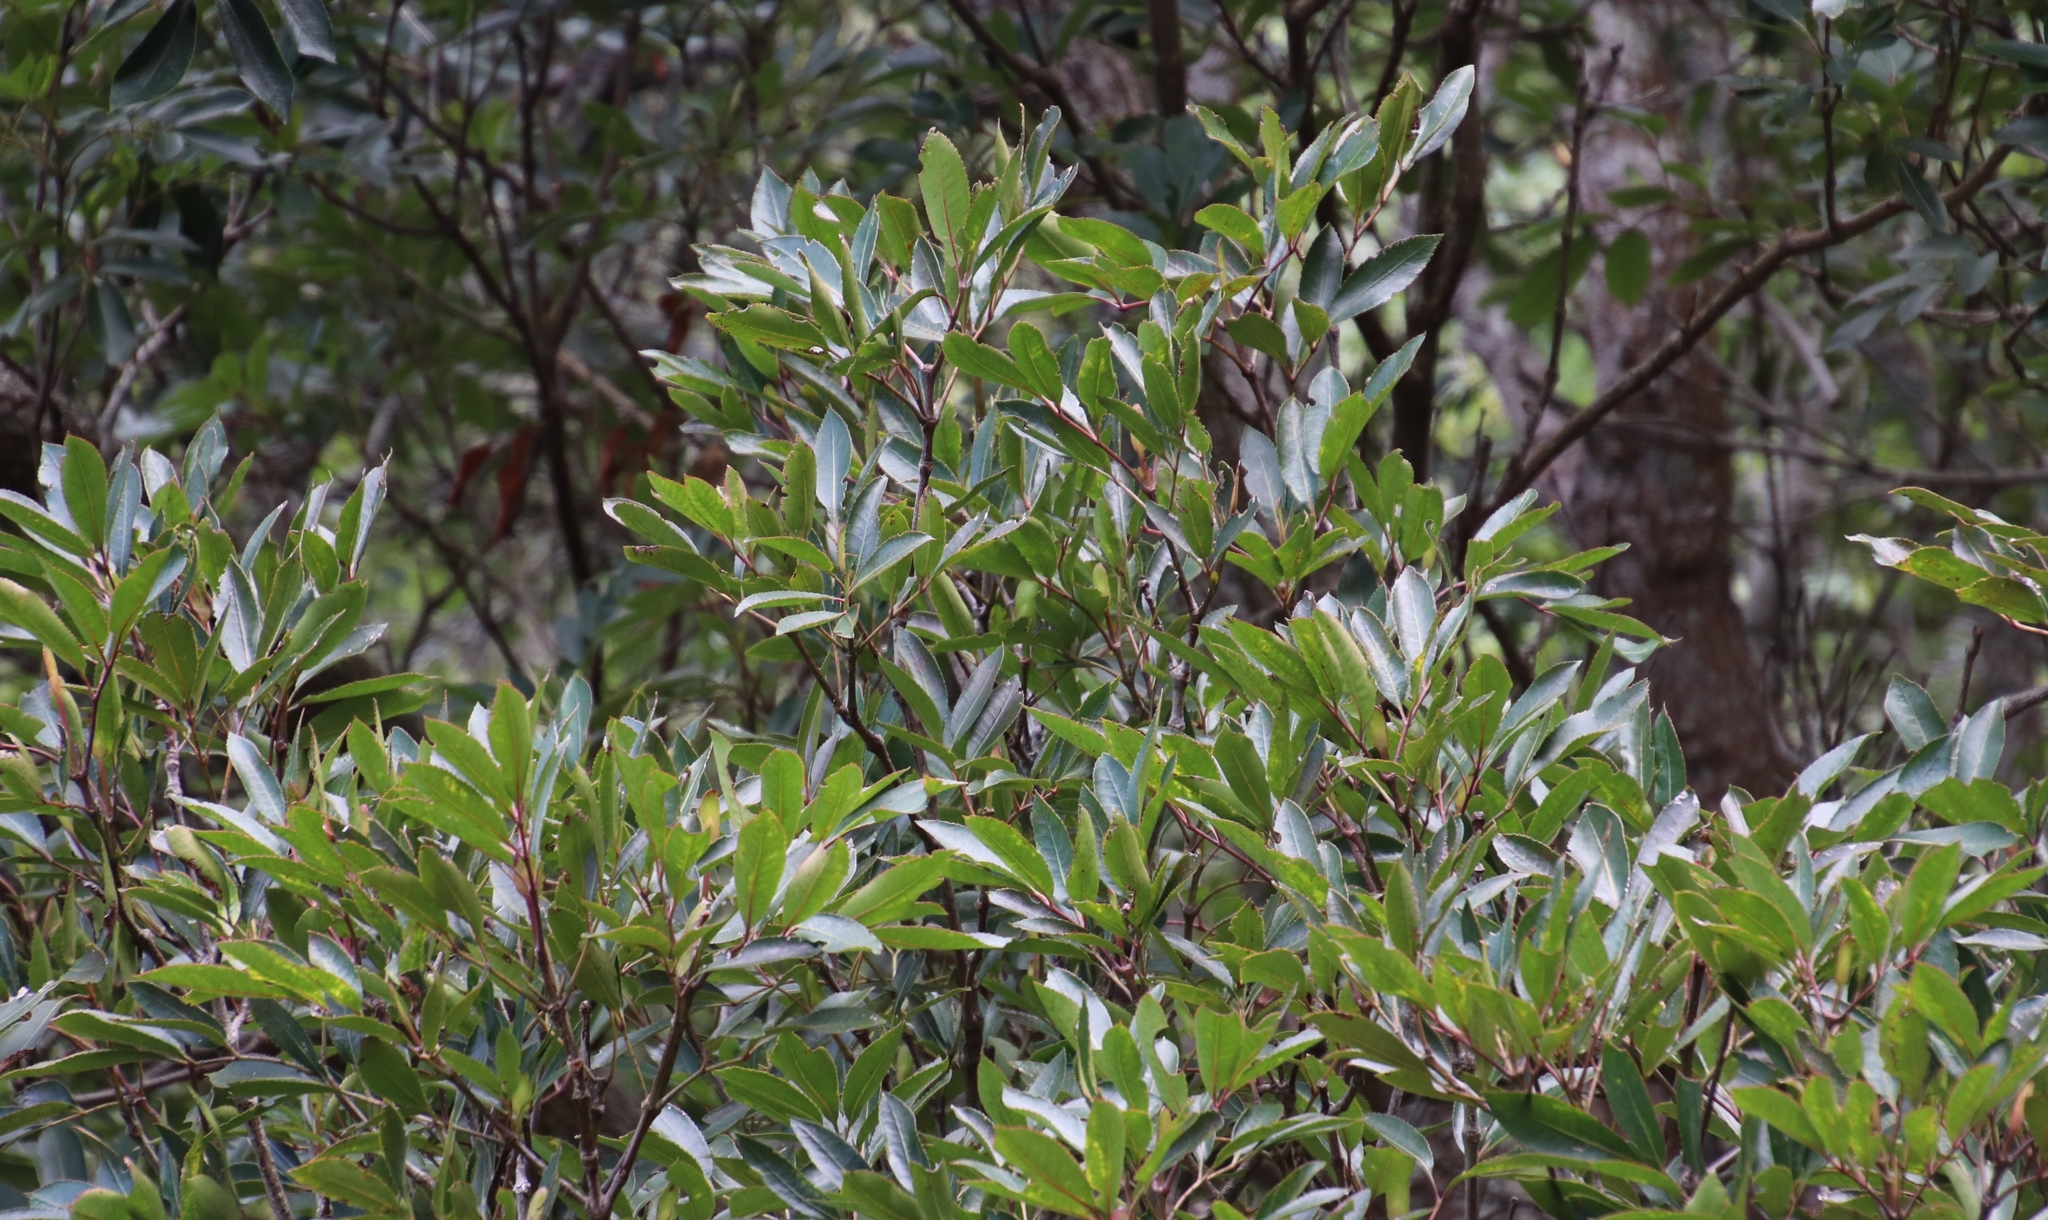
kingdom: Plantae
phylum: Tracheophyta
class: Magnoliopsida
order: Oxalidales
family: Cunoniaceae
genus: Cunonia
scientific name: Cunonia capensis
